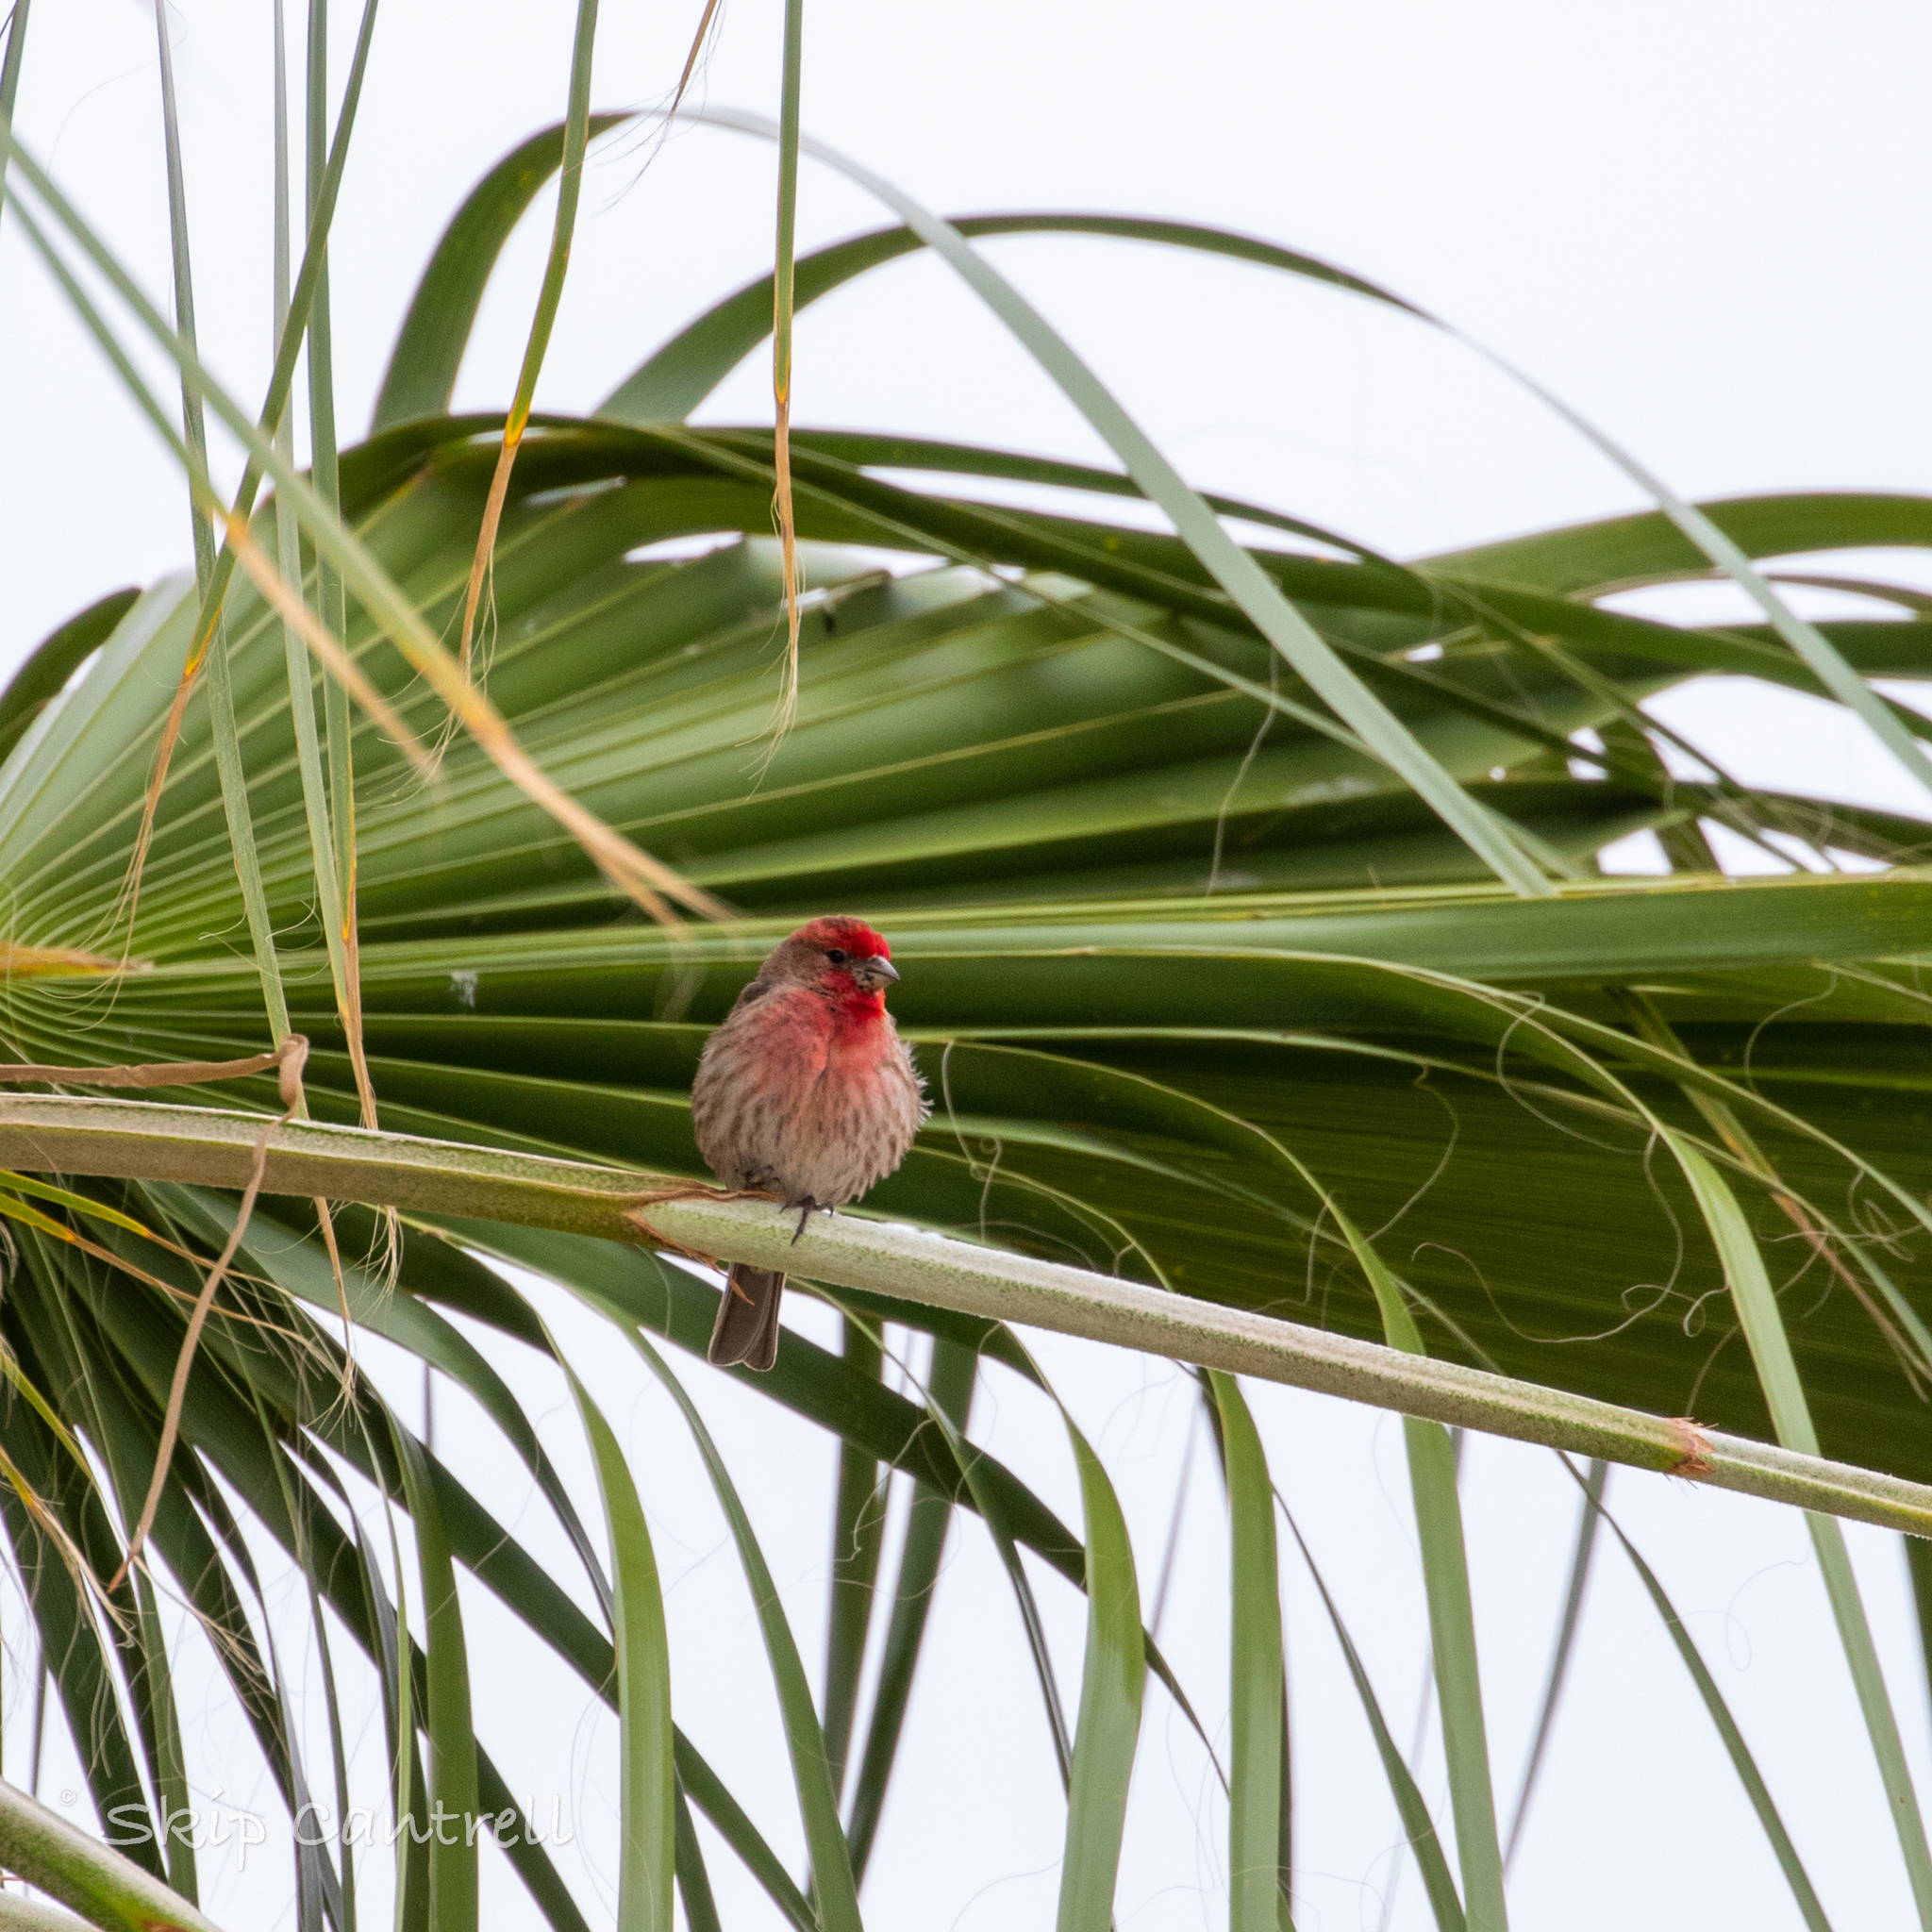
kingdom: Animalia
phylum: Chordata
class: Aves
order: Passeriformes
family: Fringillidae
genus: Haemorhous
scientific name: Haemorhous mexicanus
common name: House finch
